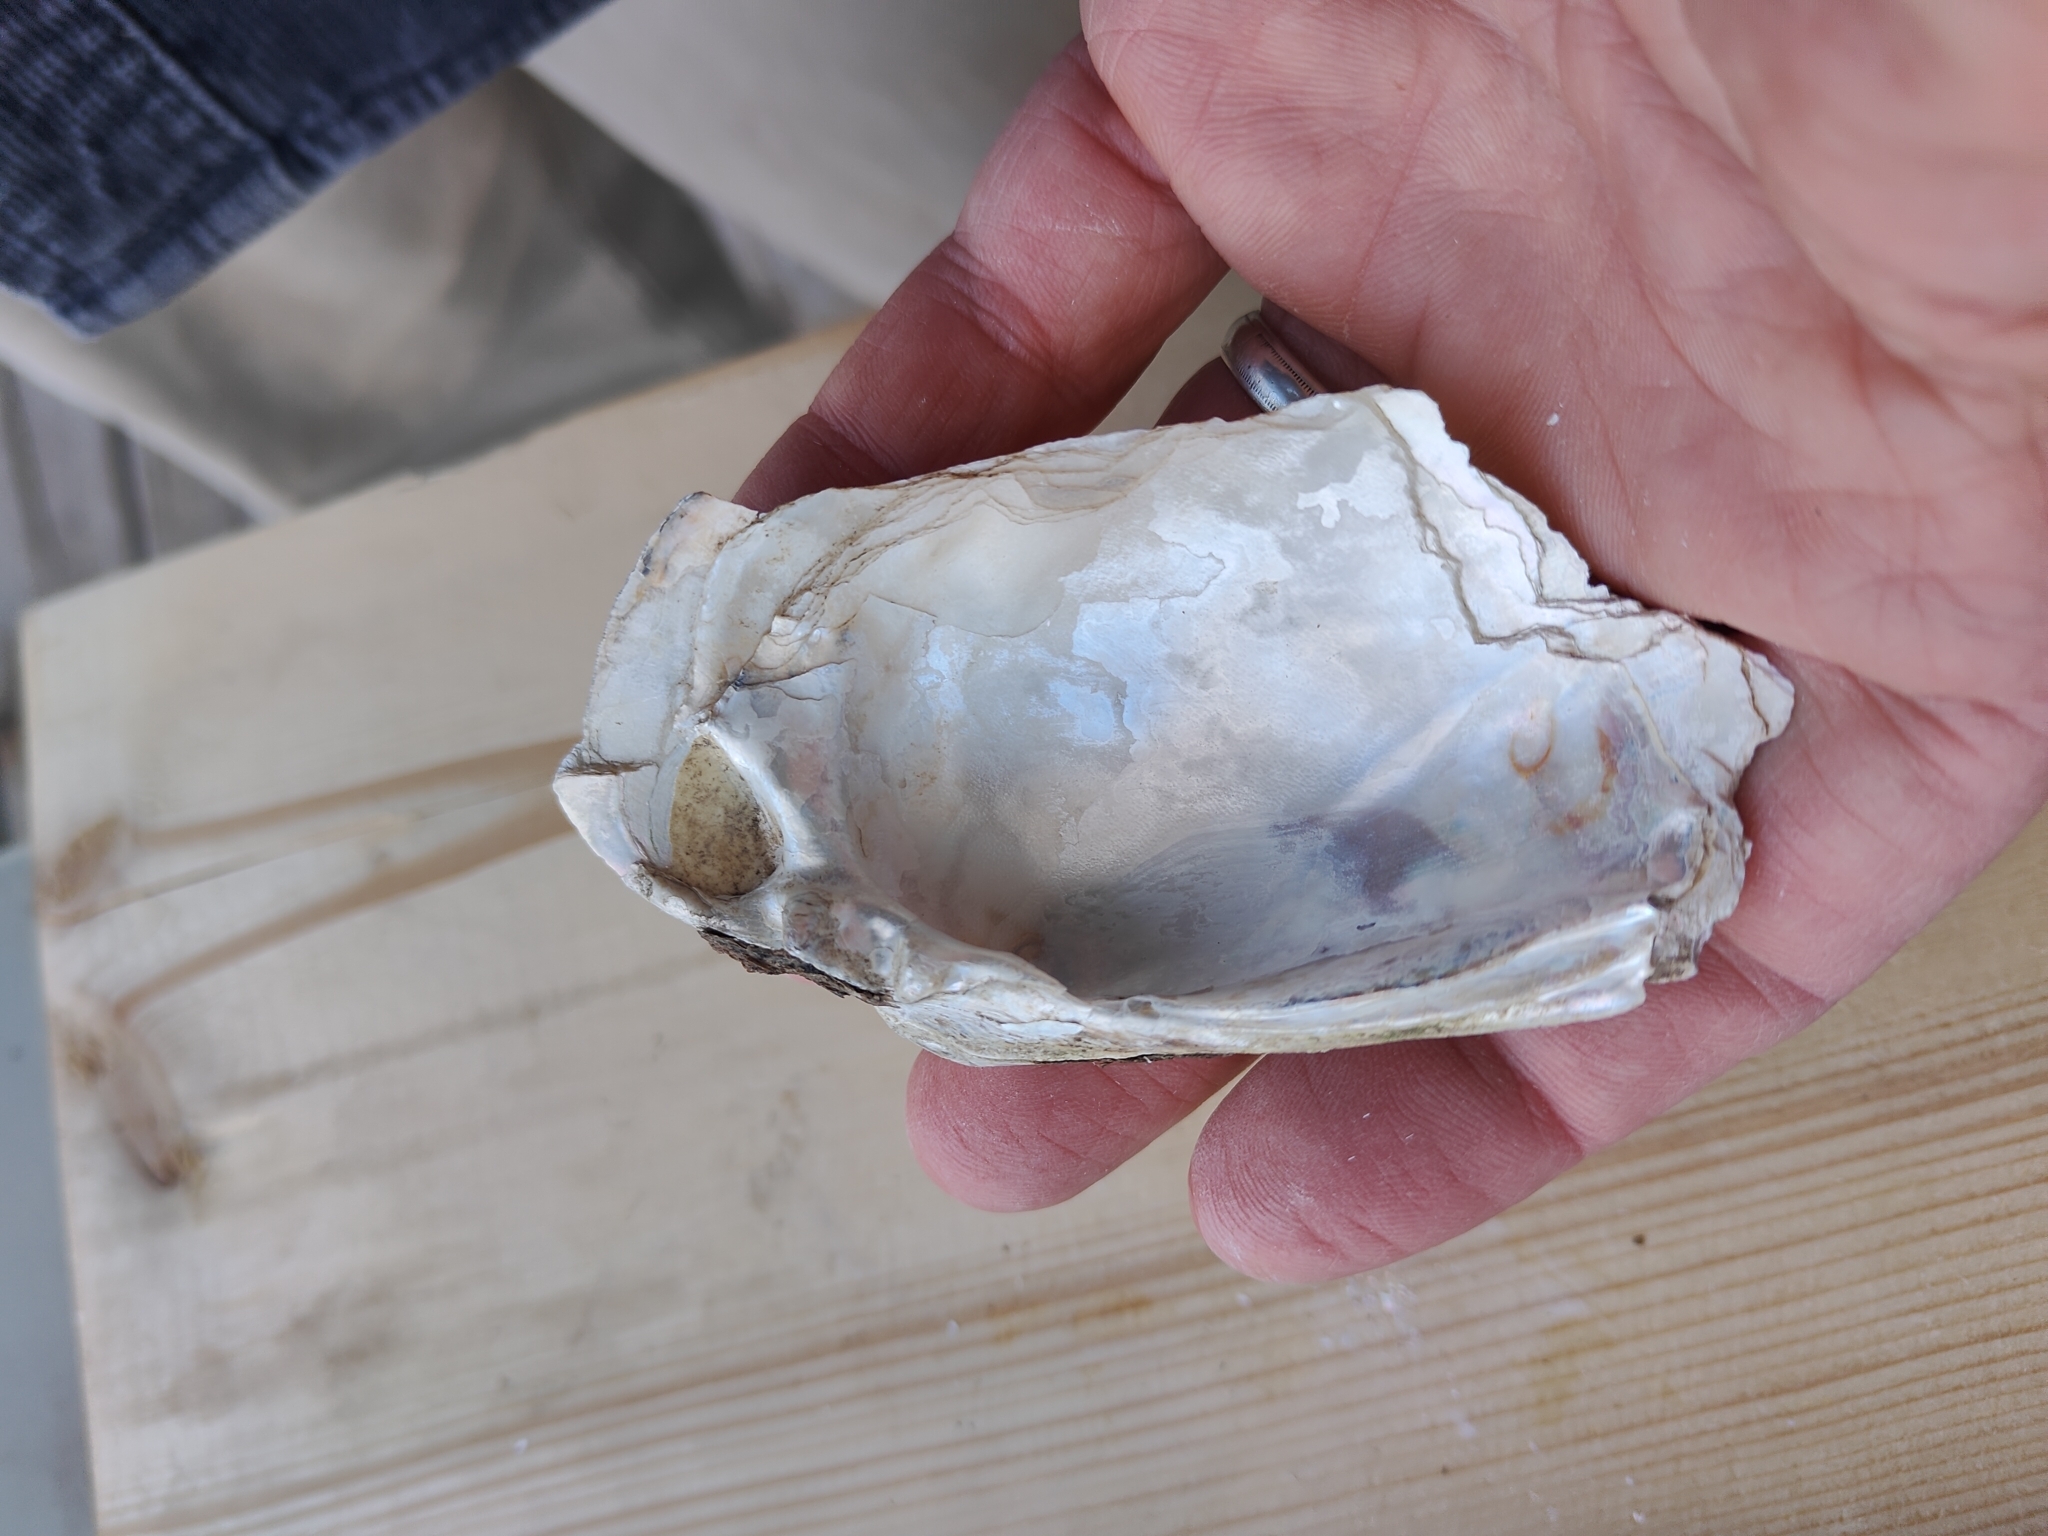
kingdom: Animalia
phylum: Mollusca
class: Bivalvia
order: Unionida
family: Unionidae
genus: Lampsilis
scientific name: Lampsilis cardium
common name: Plain pocketbook
